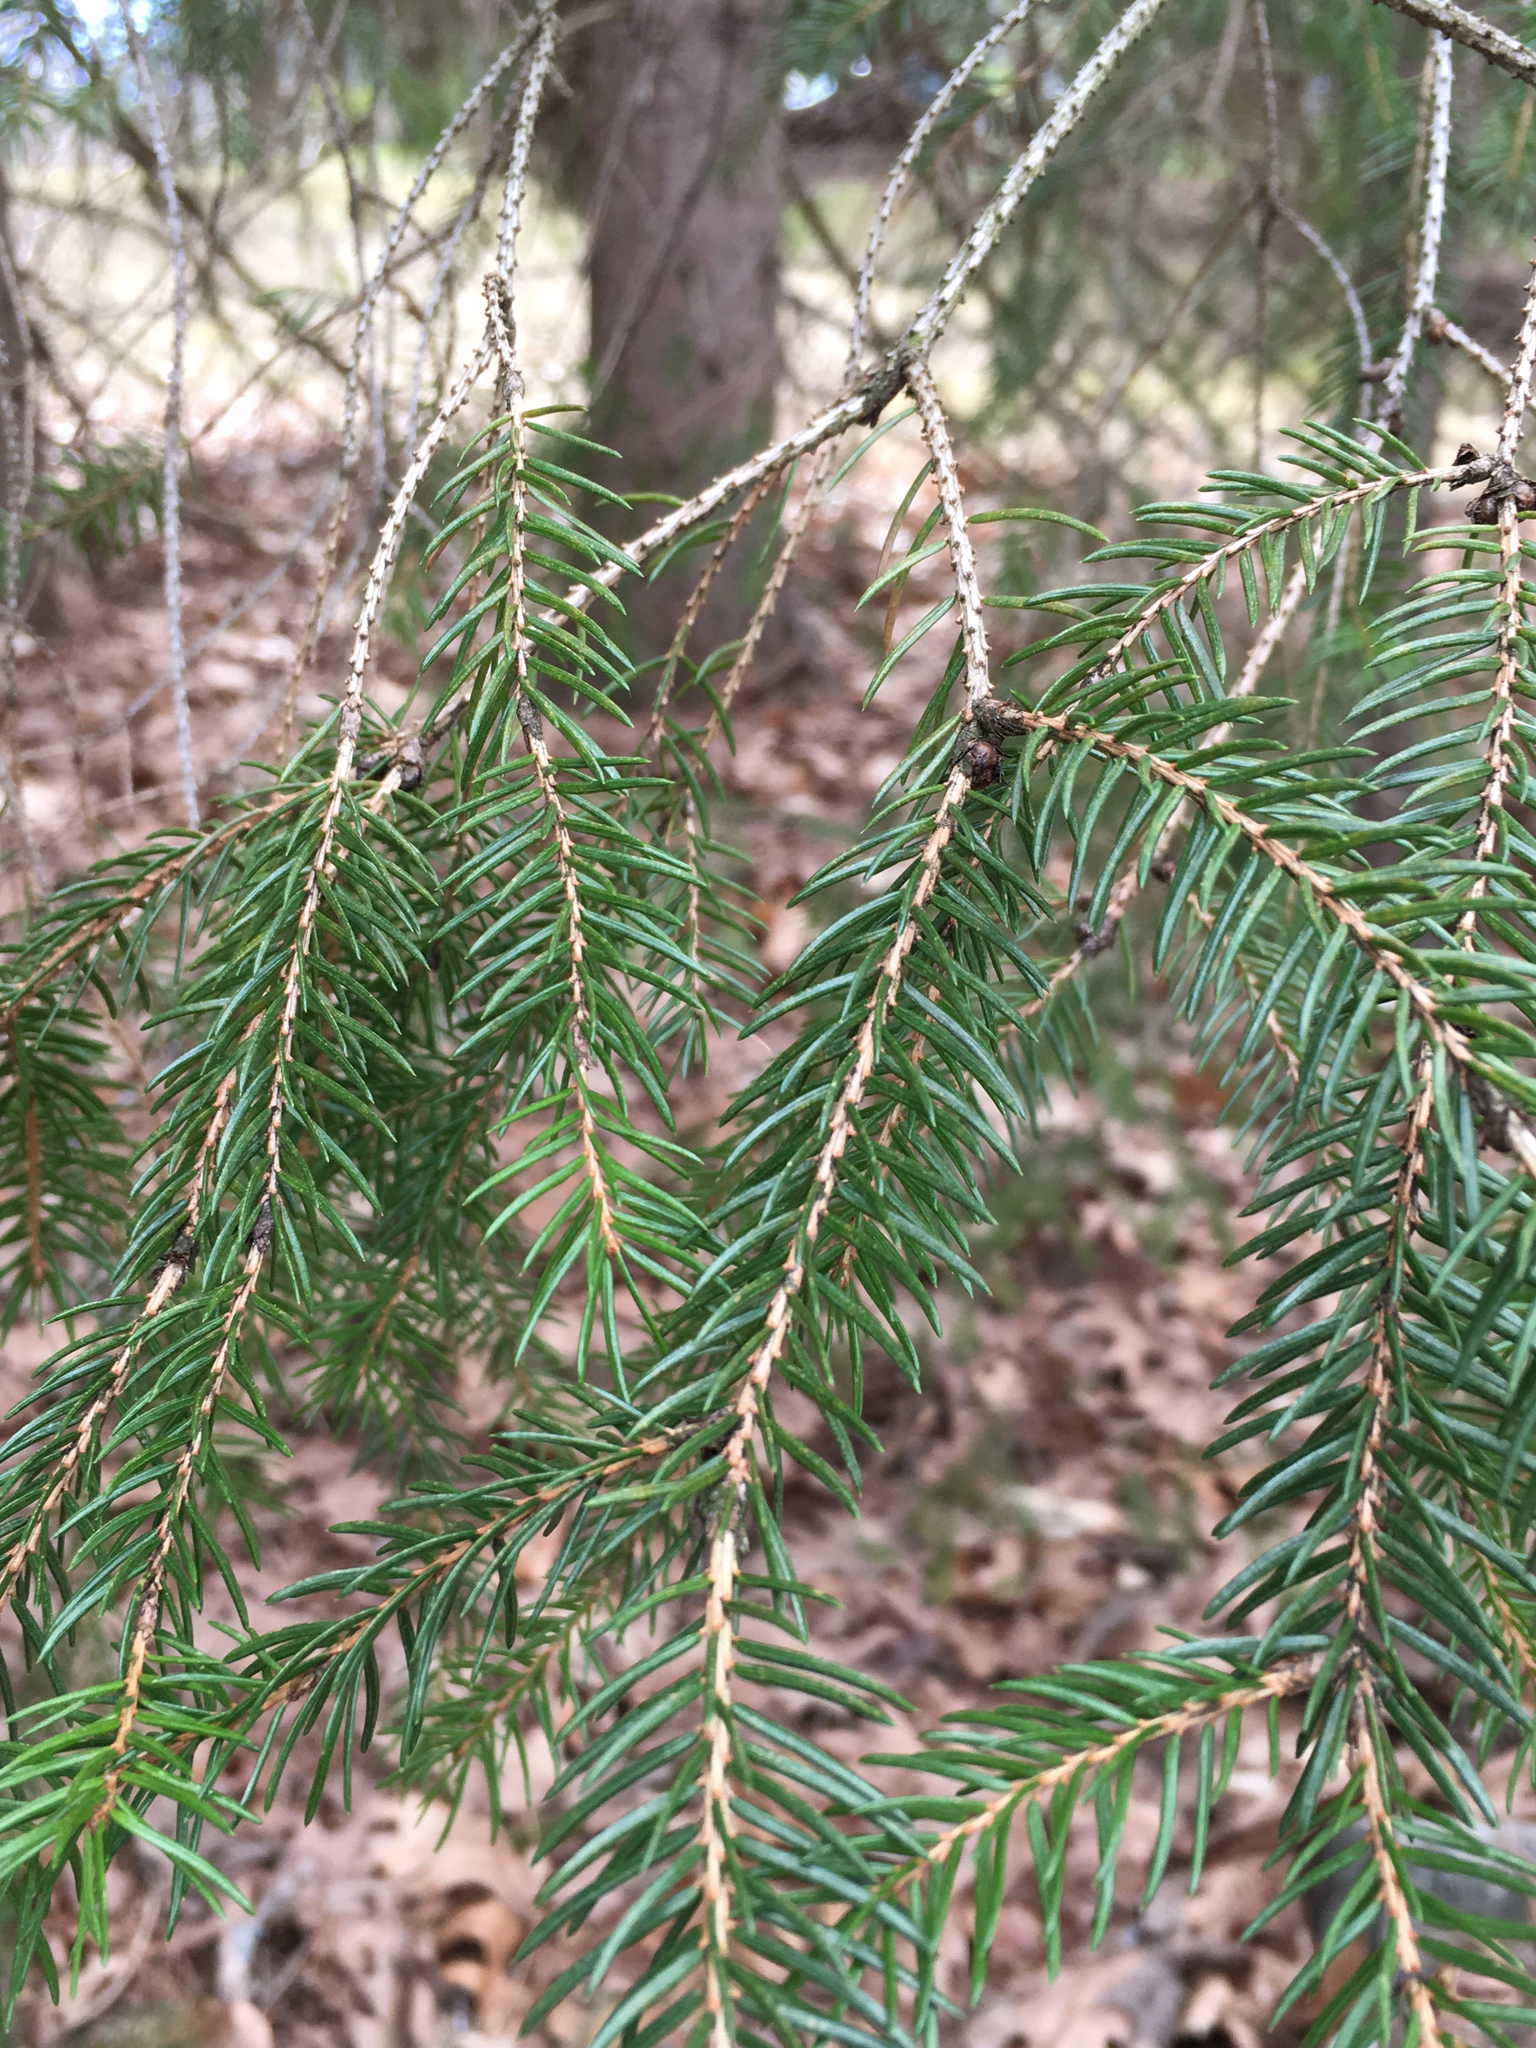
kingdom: Plantae
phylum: Tracheophyta
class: Pinopsida
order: Pinales
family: Pinaceae
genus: Picea
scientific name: Picea abies
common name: Norway spruce
